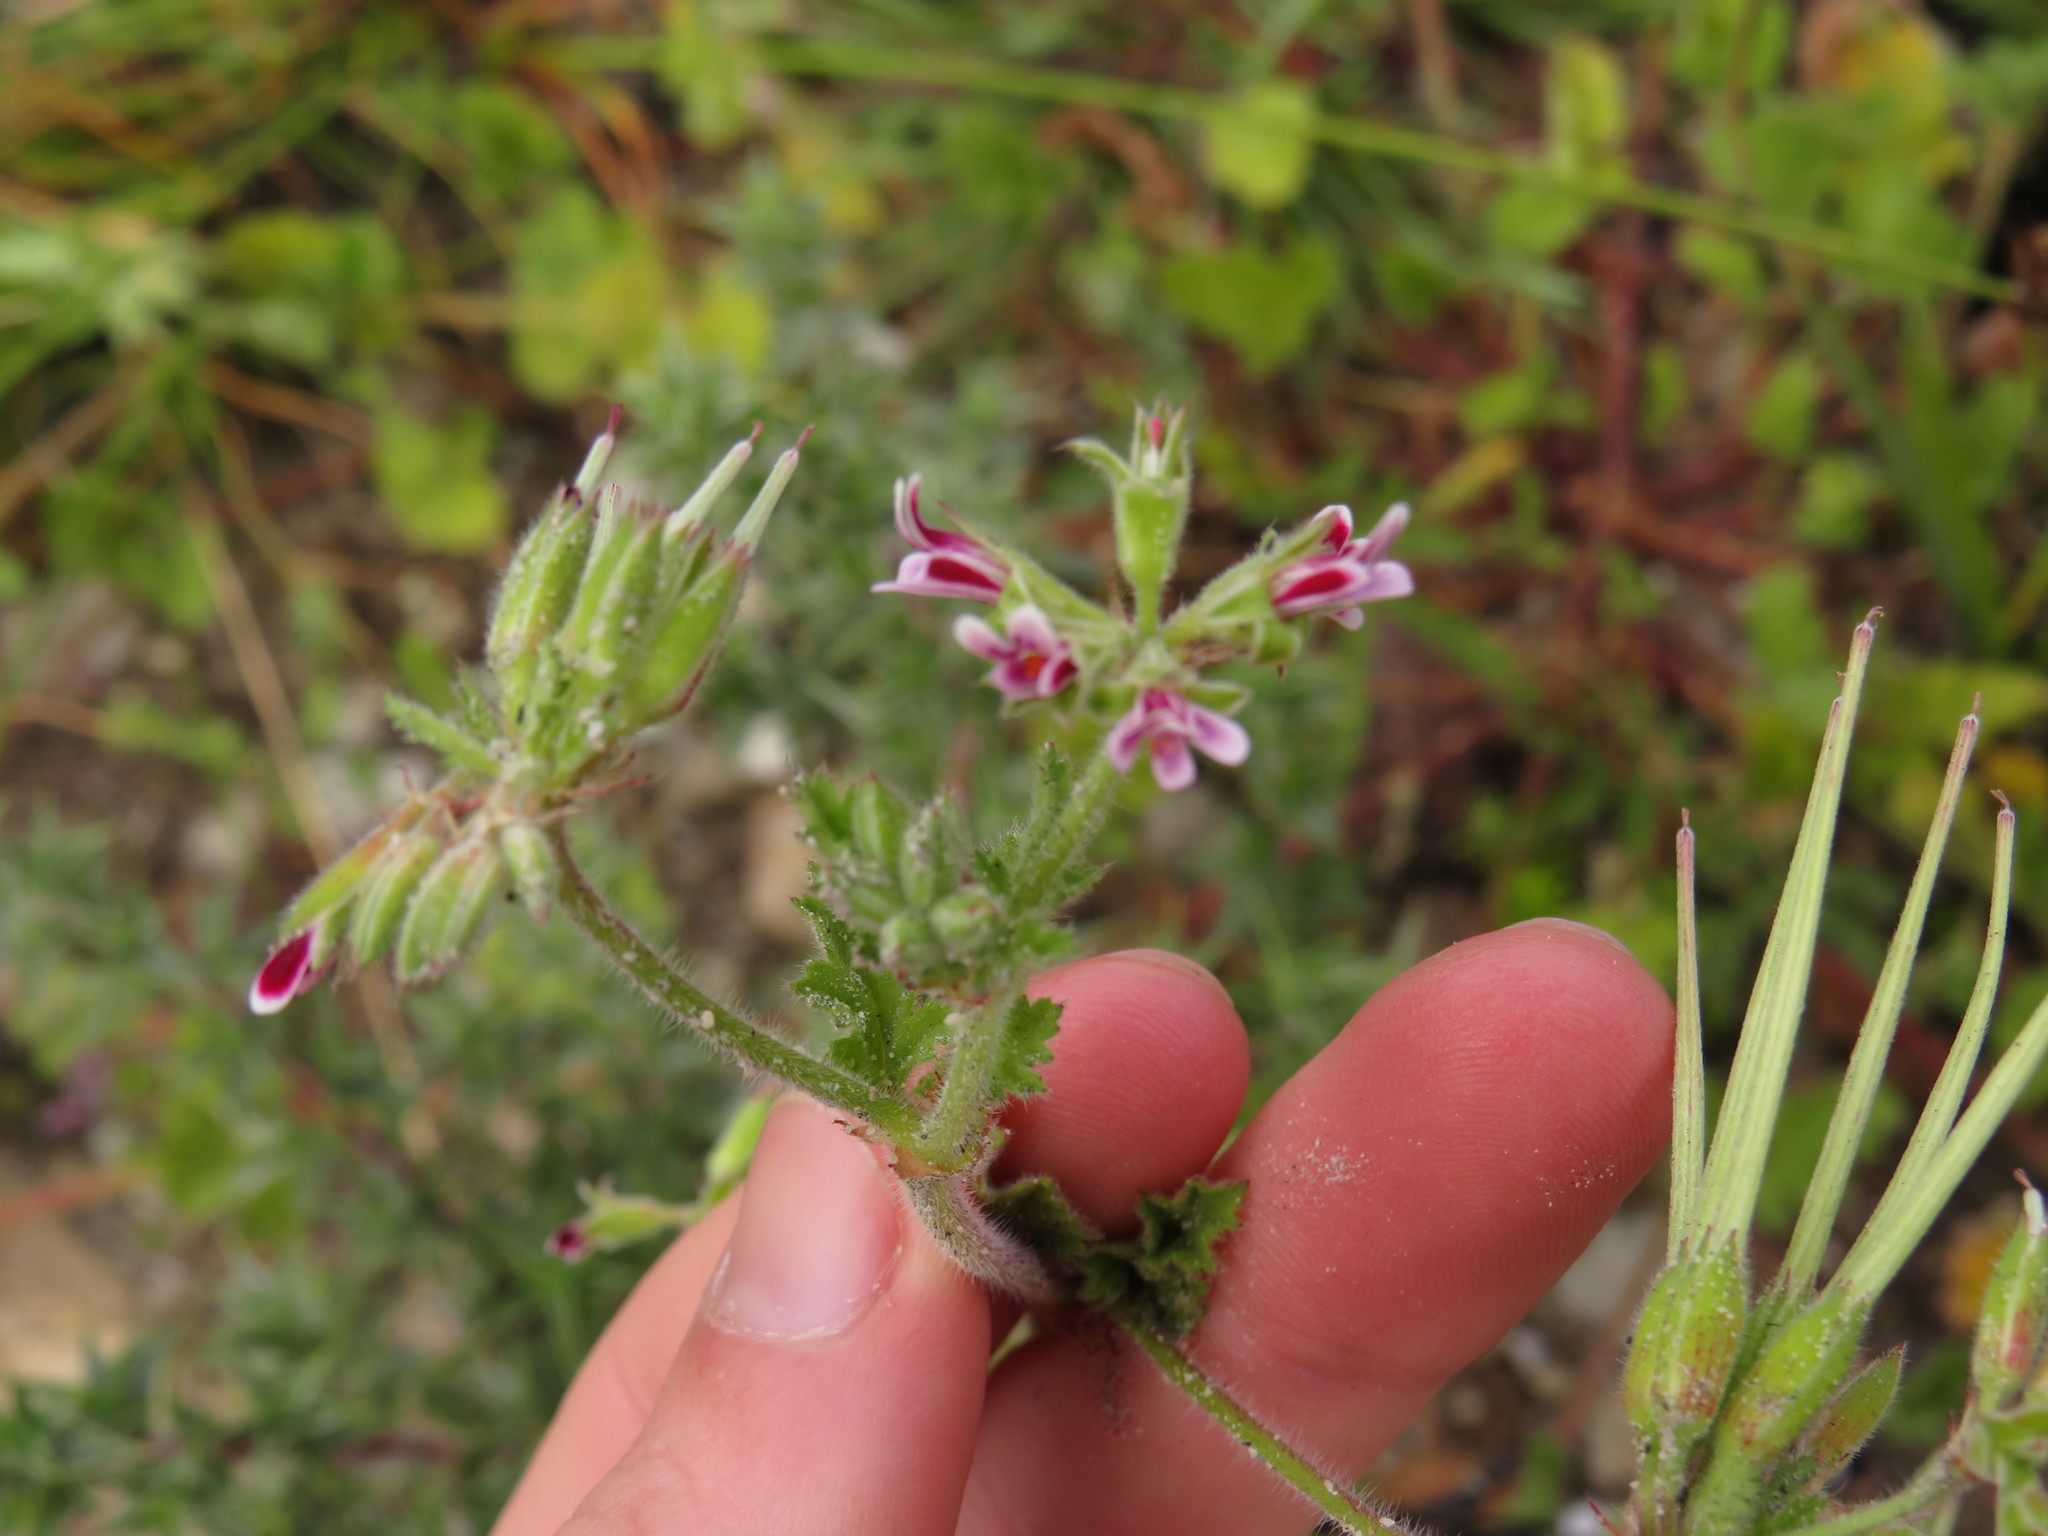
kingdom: Plantae
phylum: Tracheophyta
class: Magnoliopsida
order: Geraniales
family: Geraniaceae
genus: Pelargonium
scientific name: Pelargonium althaeoides
